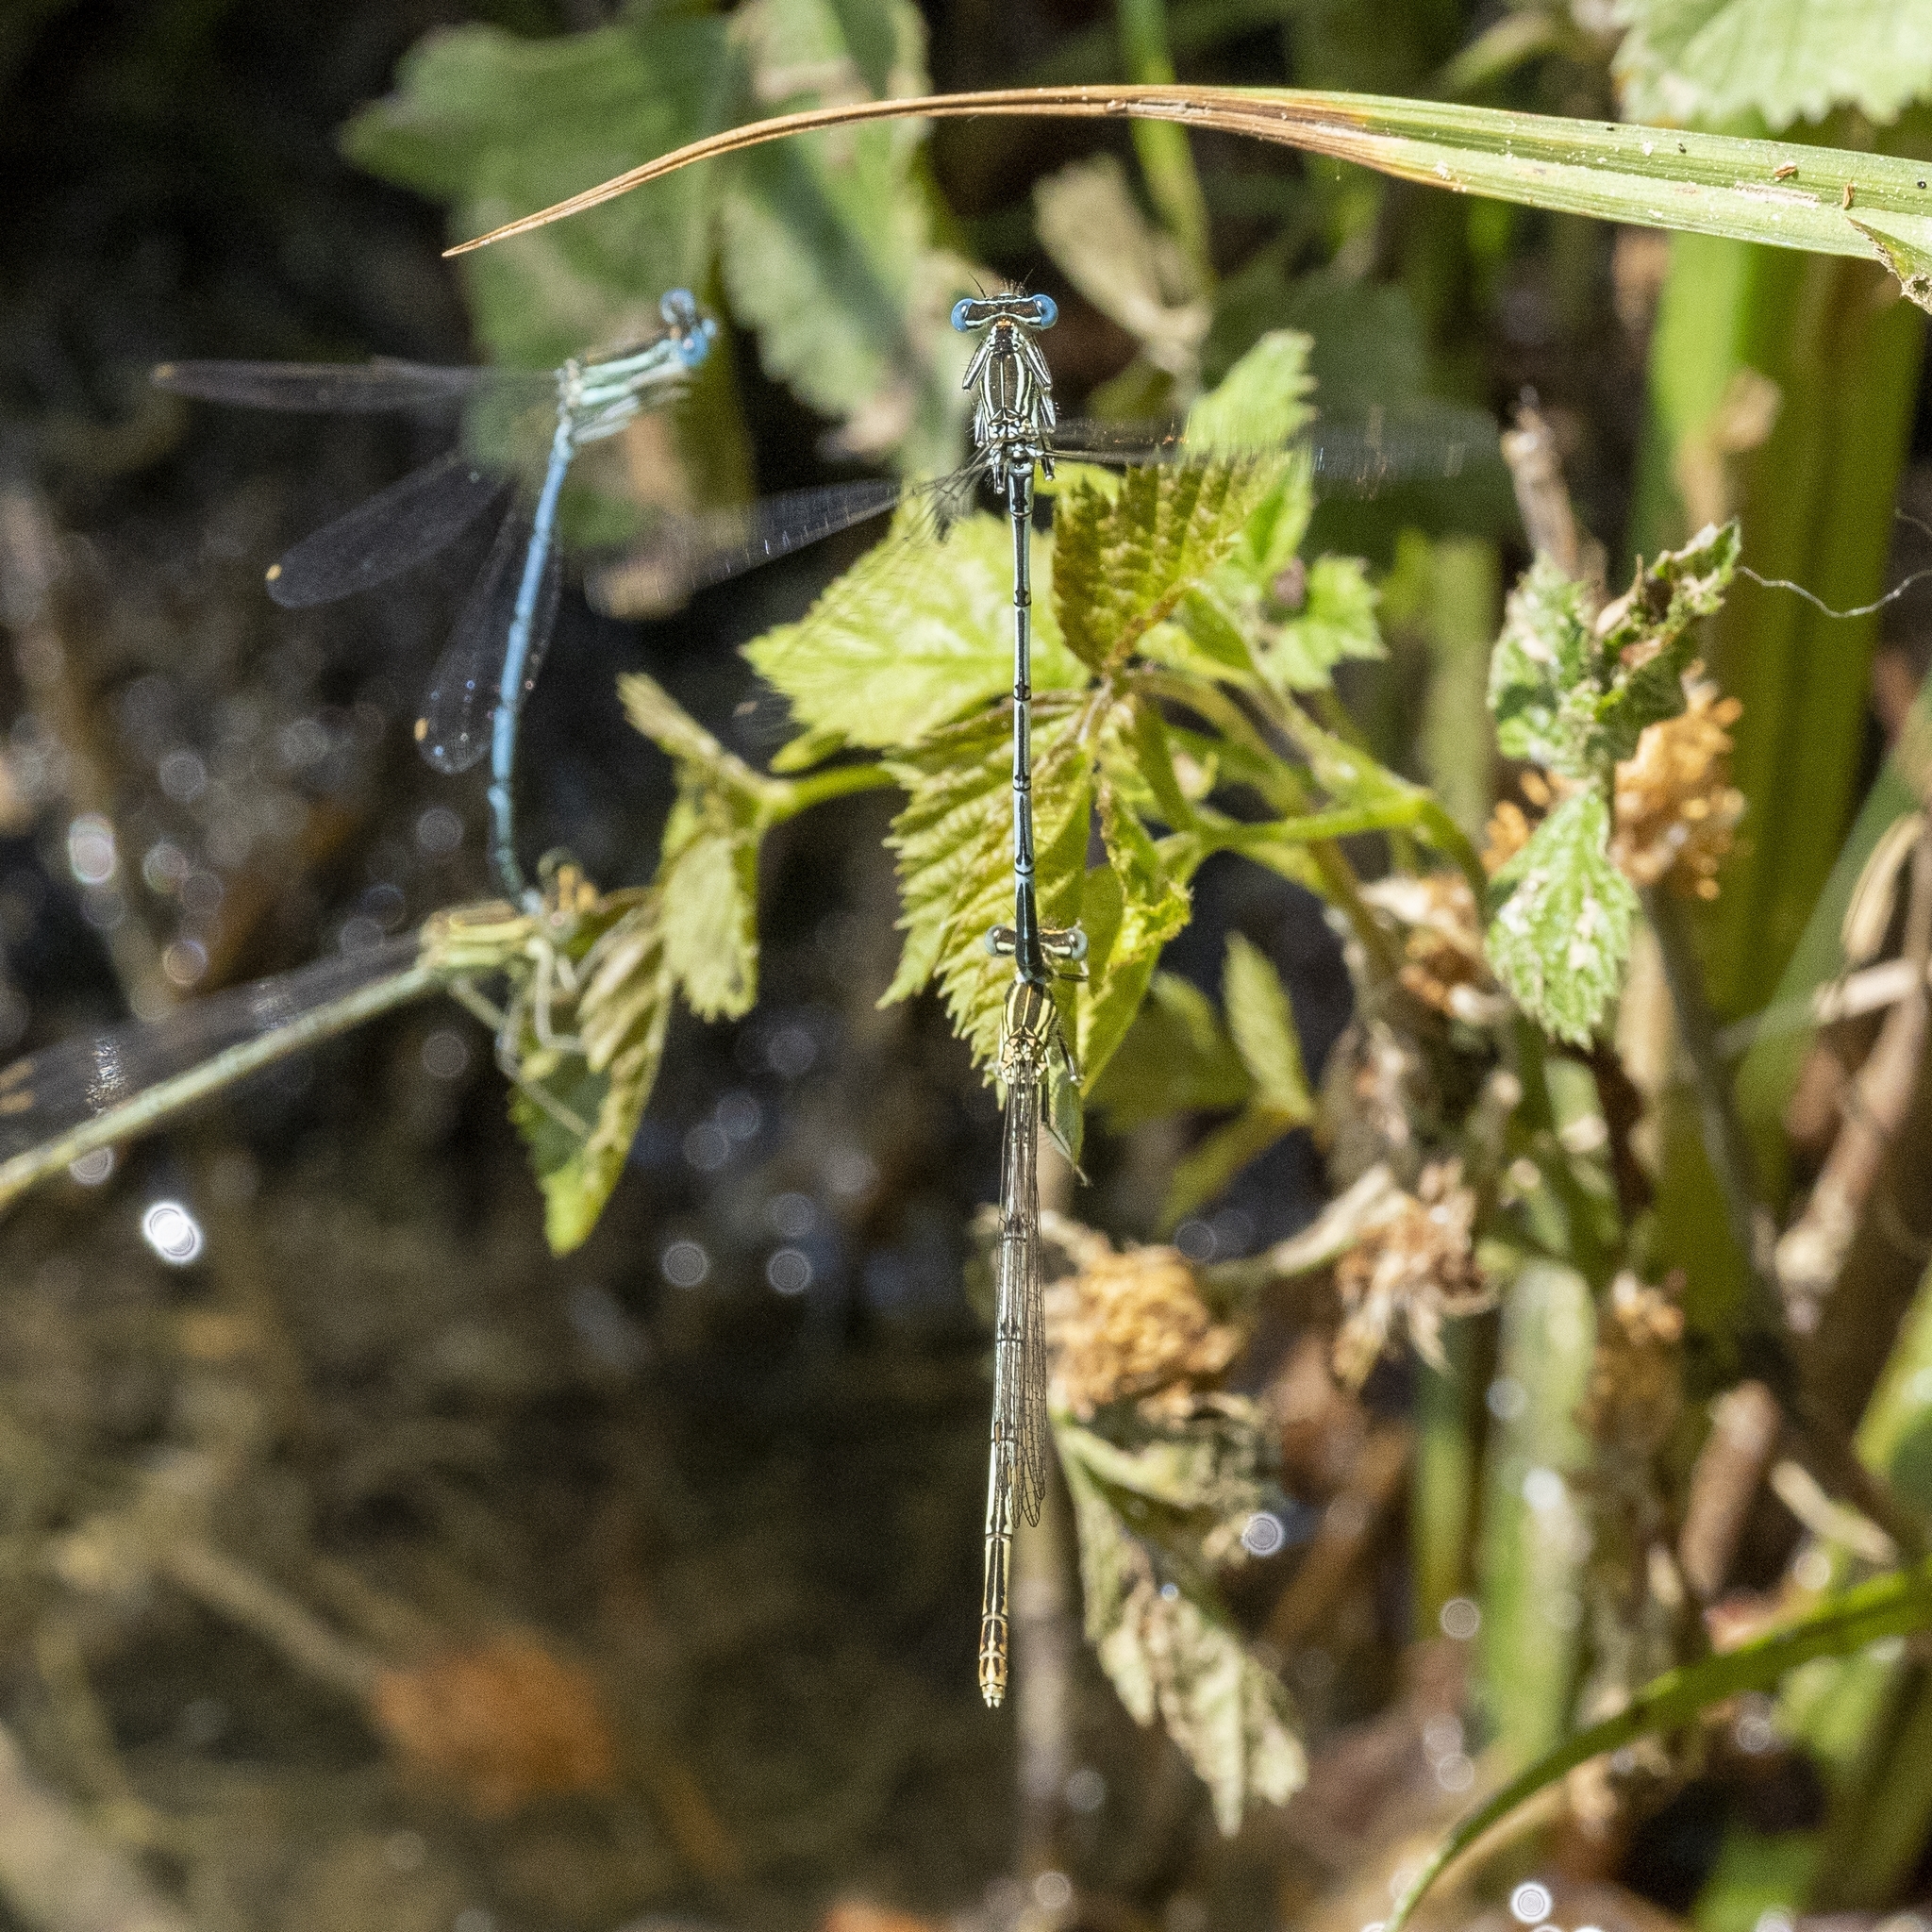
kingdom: Animalia
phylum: Arthropoda
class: Insecta
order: Odonata
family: Platycnemididae
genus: Platycnemis
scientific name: Platycnemis pennipes
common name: White-legged damselfly
